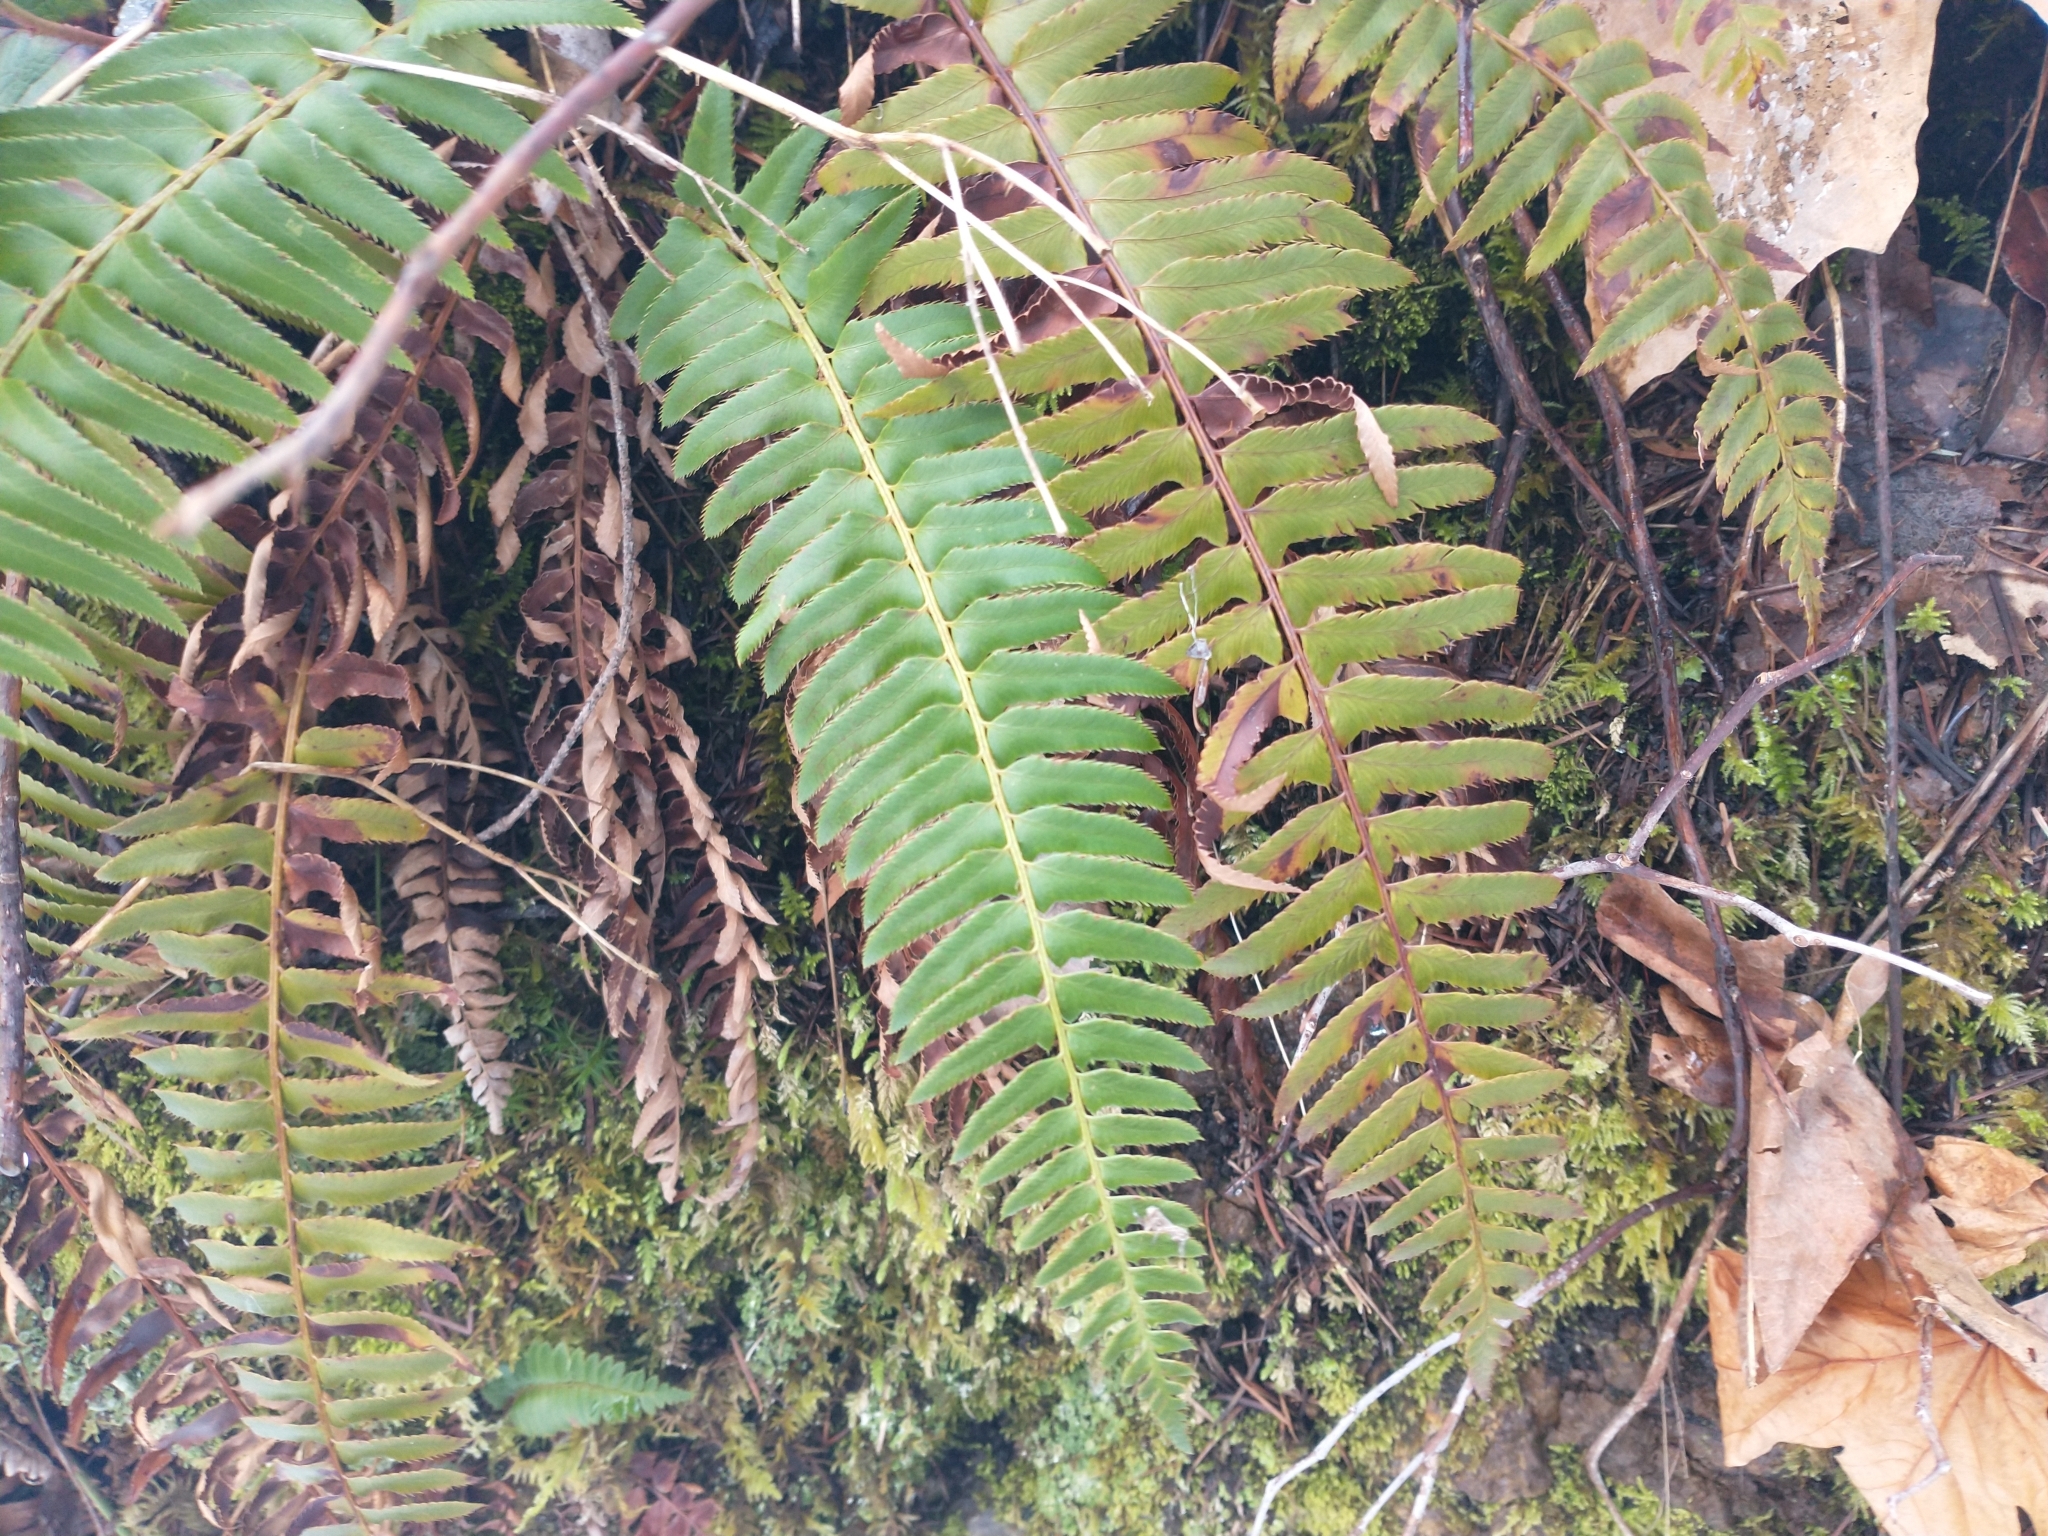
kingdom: Plantae
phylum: Tracheophyta
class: Polypodiopsida
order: Polypodiales
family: Dryopteridaceae
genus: Polystichum
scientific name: Polystichum munitum
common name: Western sword-fern
